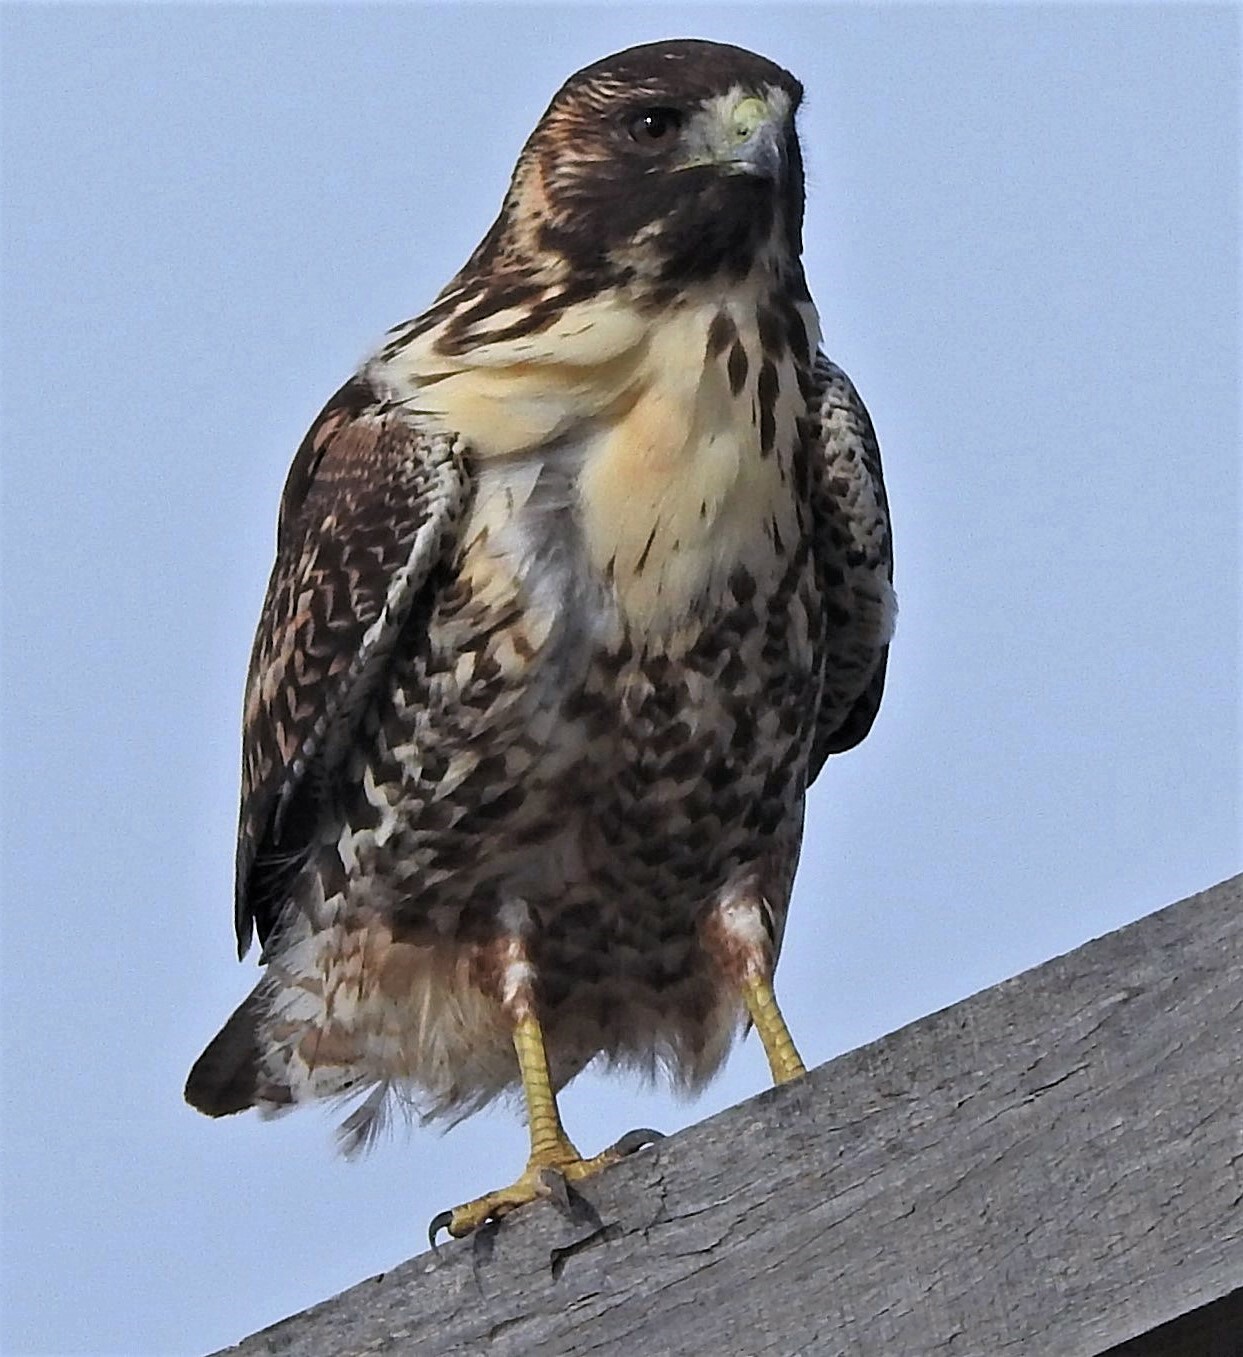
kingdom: Animalia
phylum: Chordata
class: Aves
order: Accipitriformes
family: Accipitridae
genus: Buteo
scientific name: Buteo polyosoma
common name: Variable hawk
